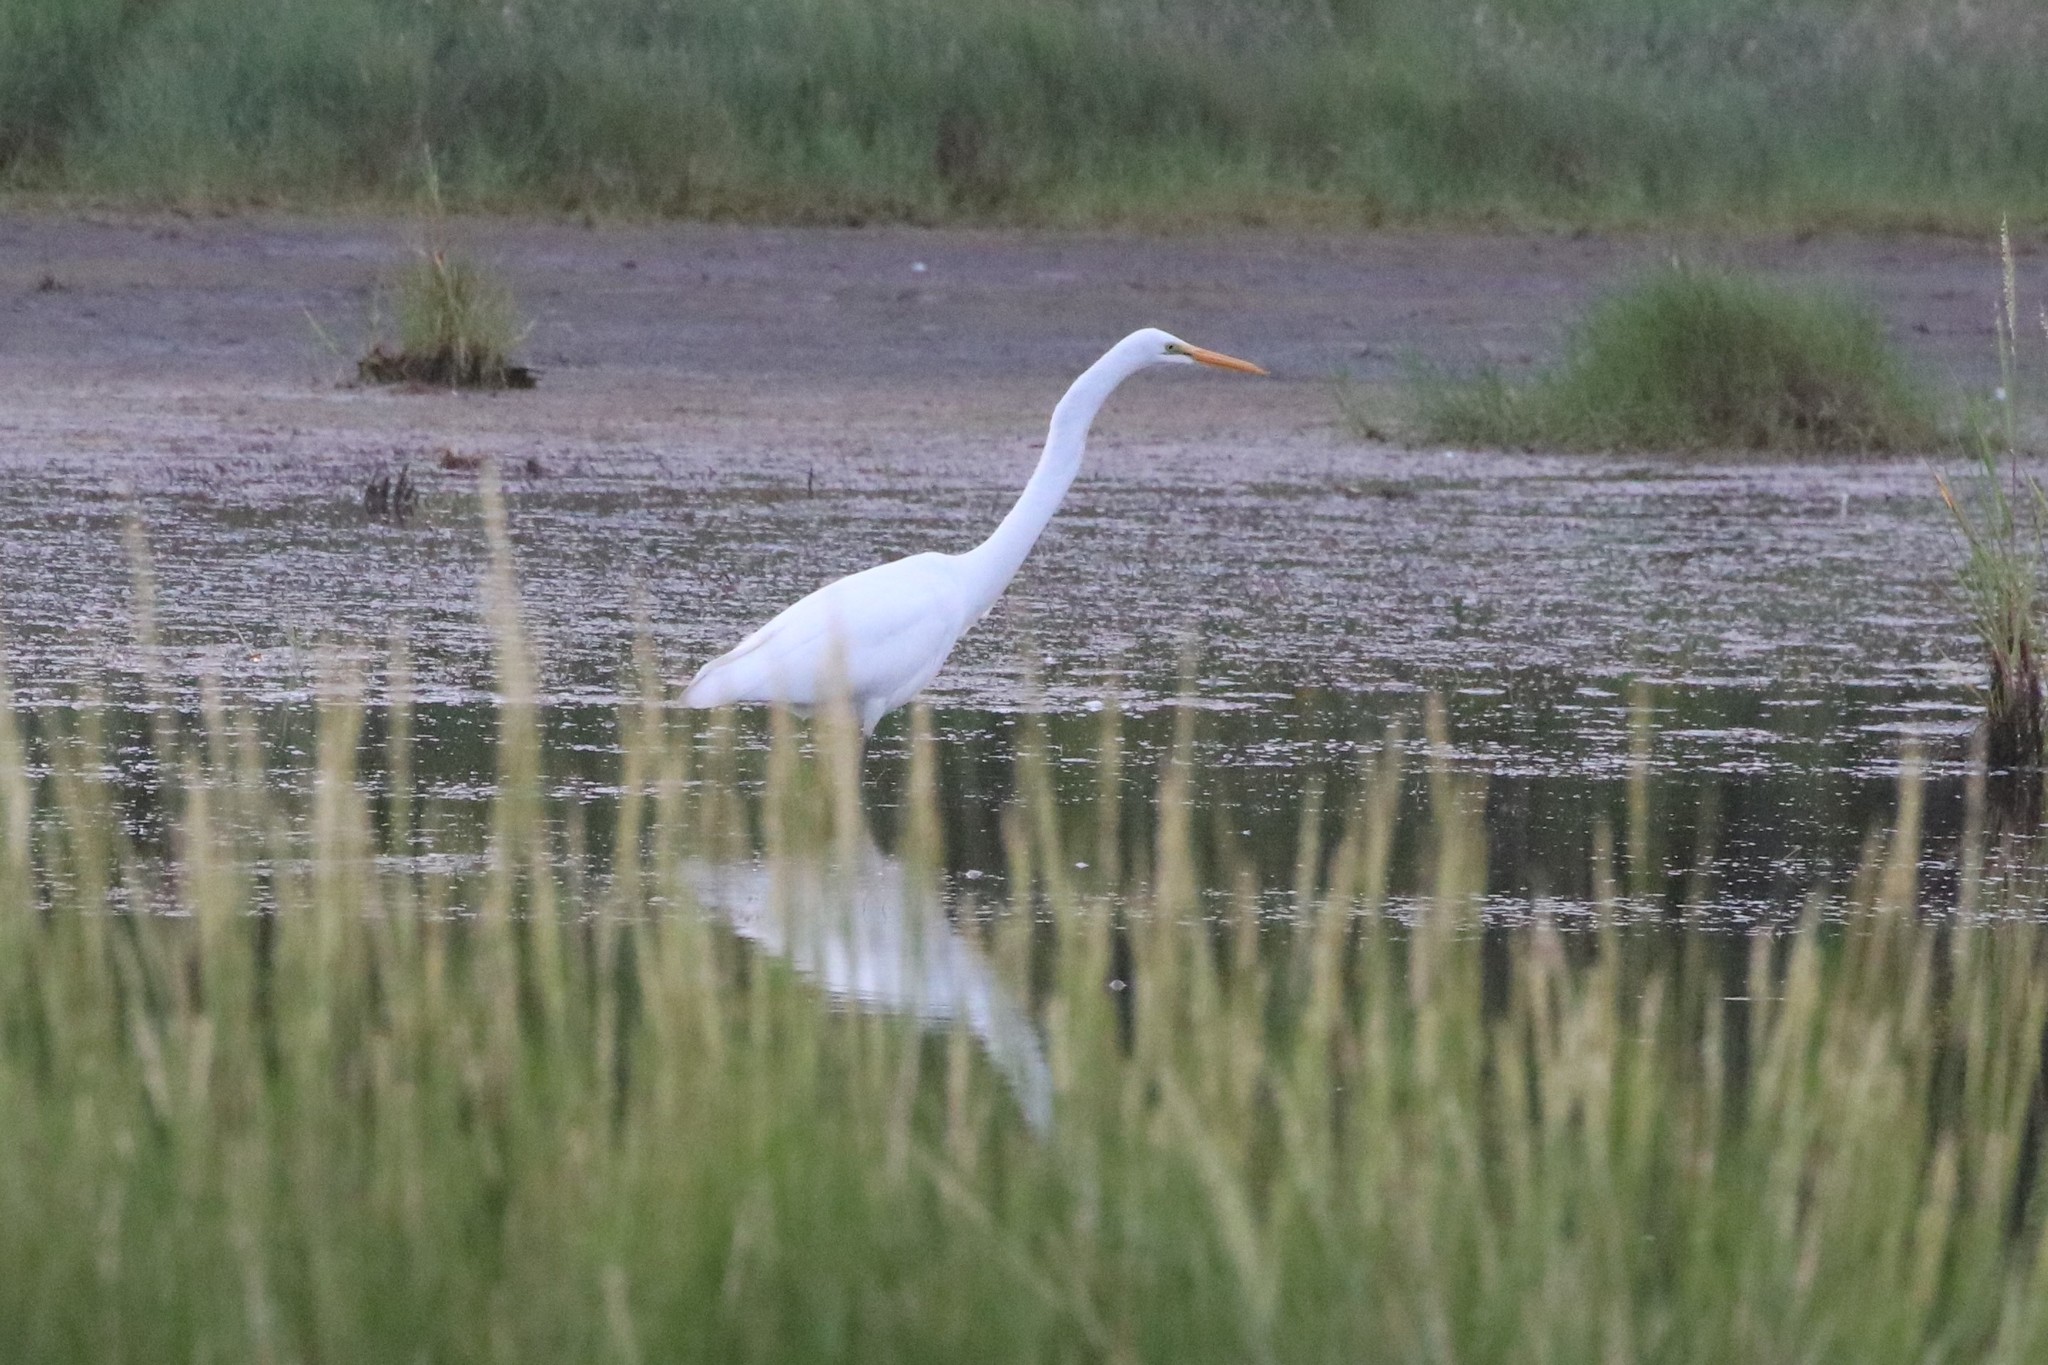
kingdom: Animalia
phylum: Chordata
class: Aves
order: Pelecaniformes
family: Ardeidae
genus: Ardea
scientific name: Ardea alba
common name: Great egret
